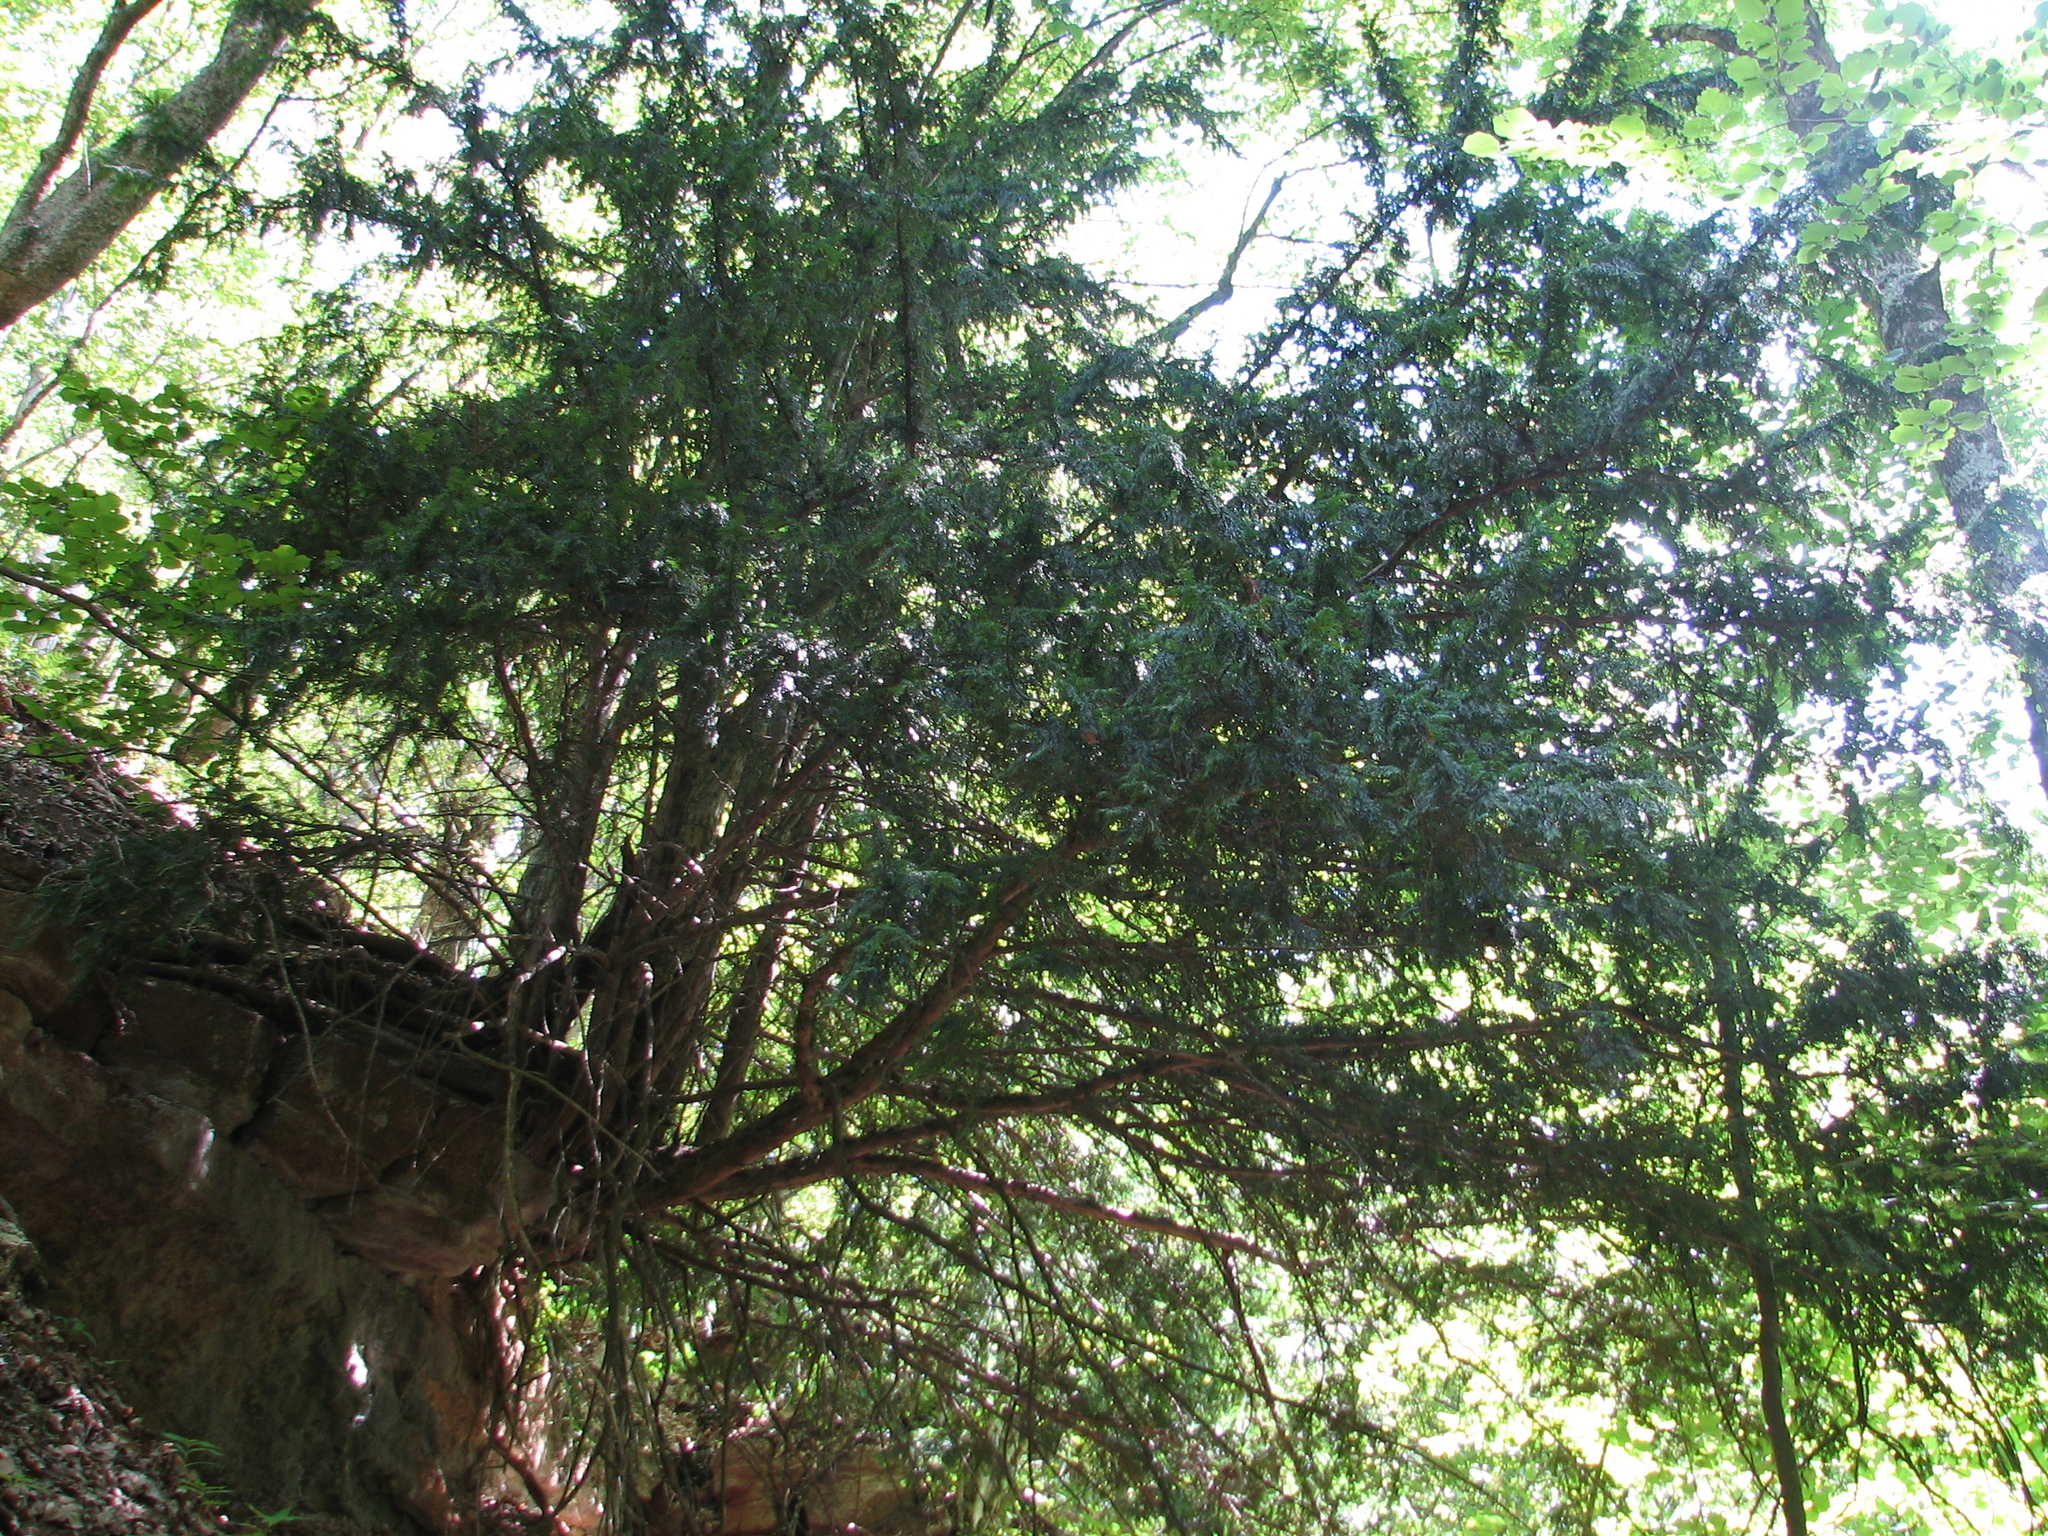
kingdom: Plantae
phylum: Tracheophyta
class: Pinopsida
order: Pinales
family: Taxaceae
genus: Taxus
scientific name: Taxus baccata
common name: Yew
